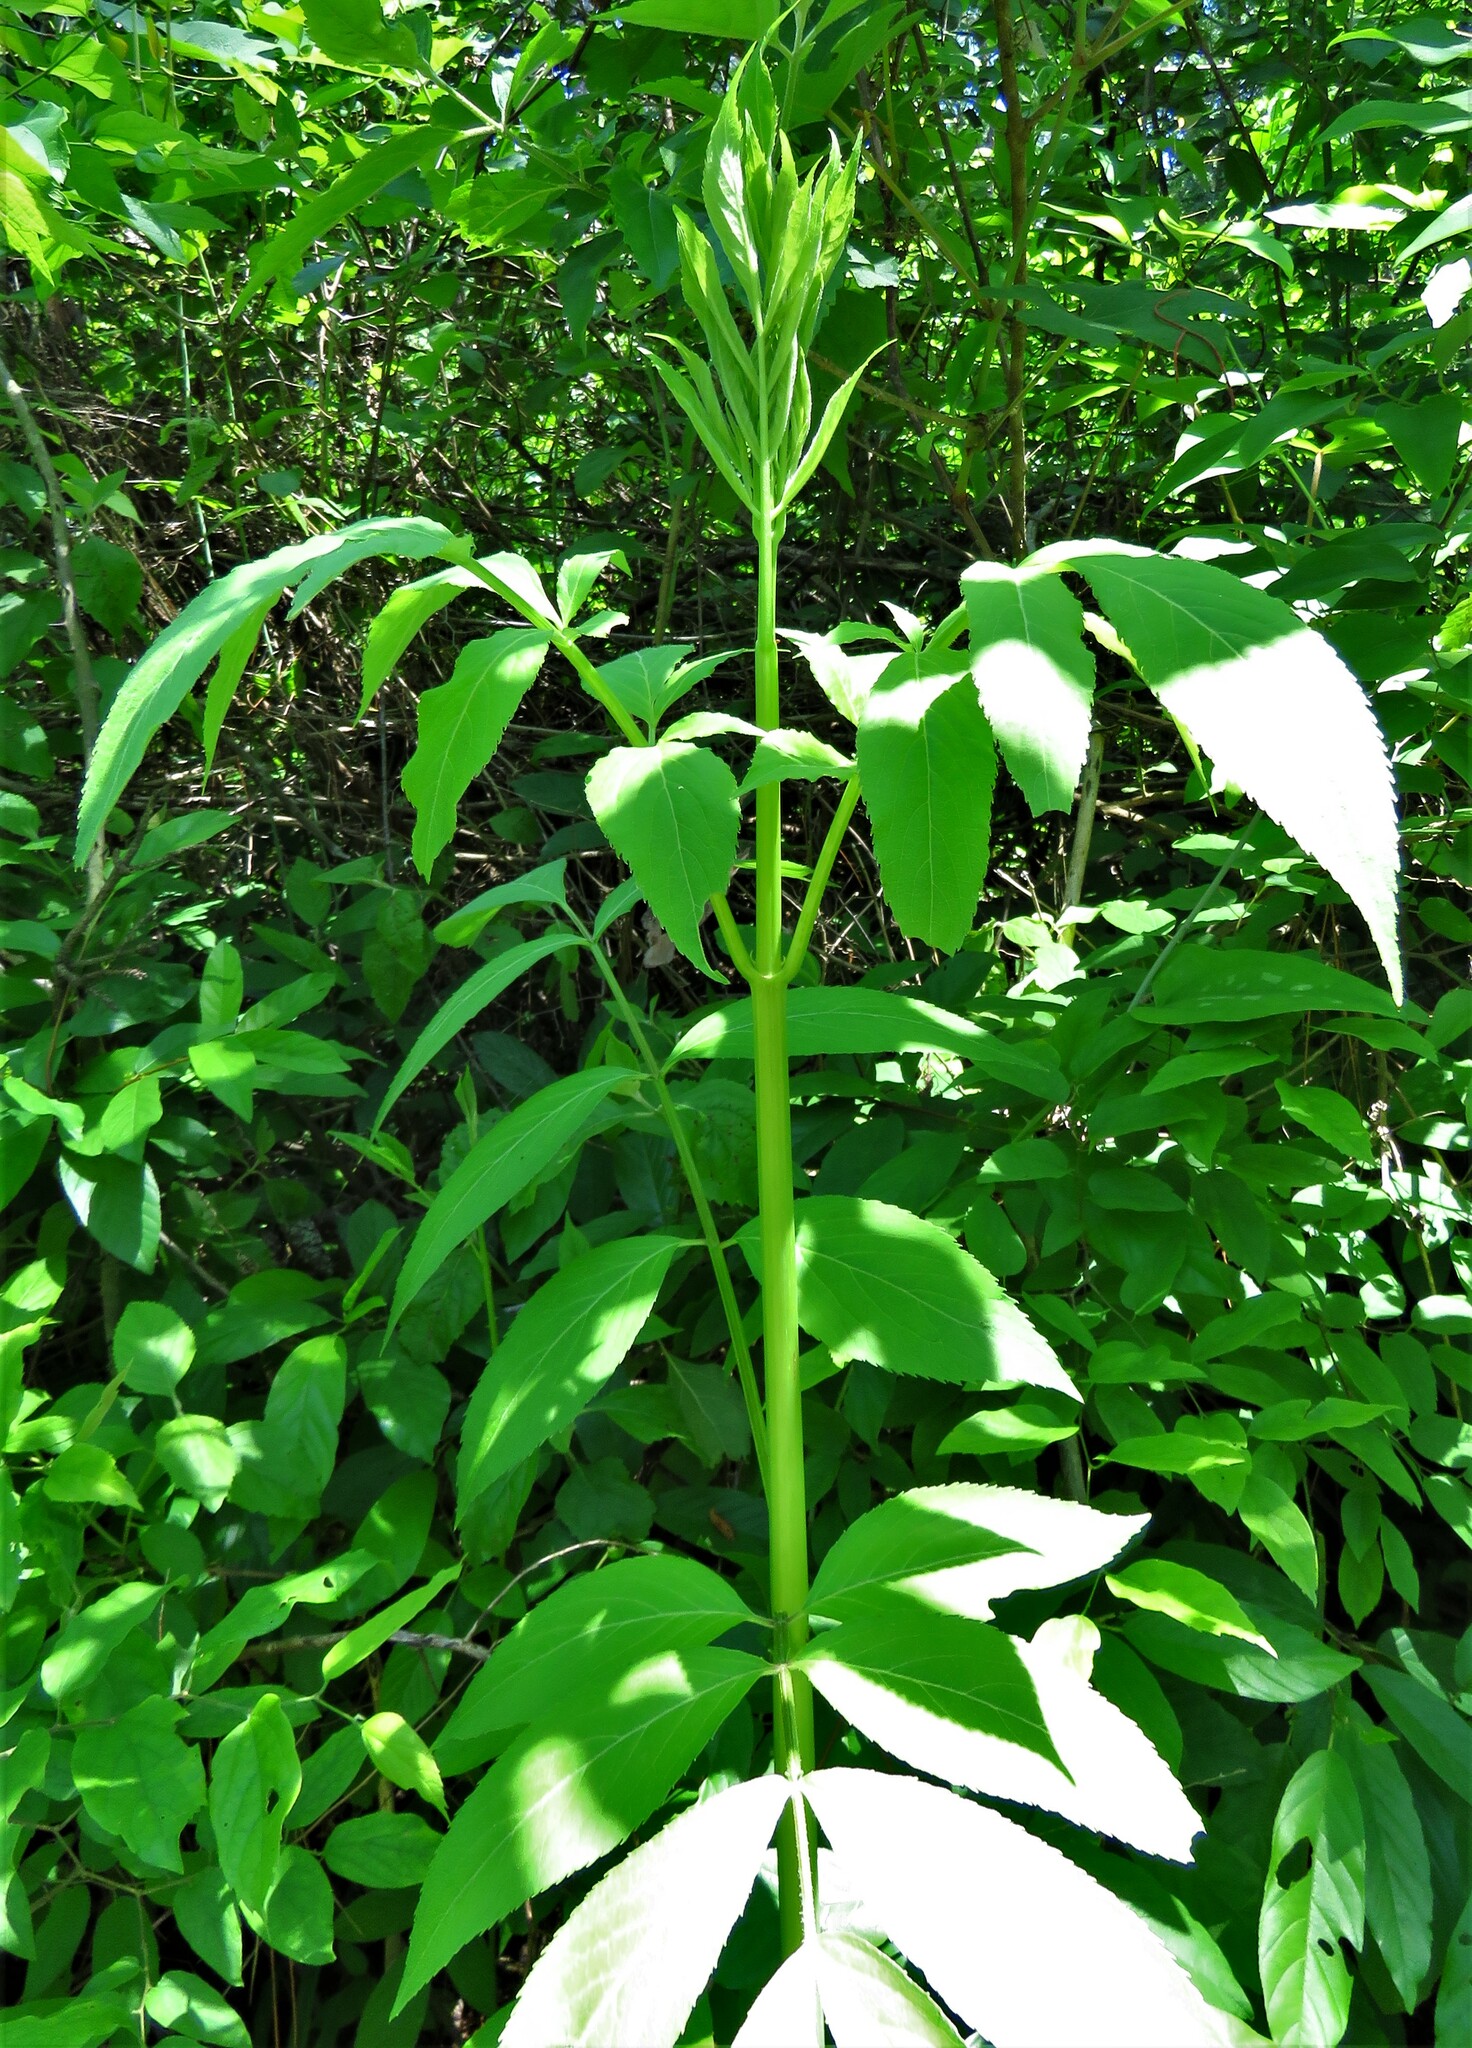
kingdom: Plantae
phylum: Tracheophyta
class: Magnoliopsida
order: Dipsacales
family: Viburnaceae
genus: Sambucus
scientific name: Sambucus canadensis
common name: American elder
